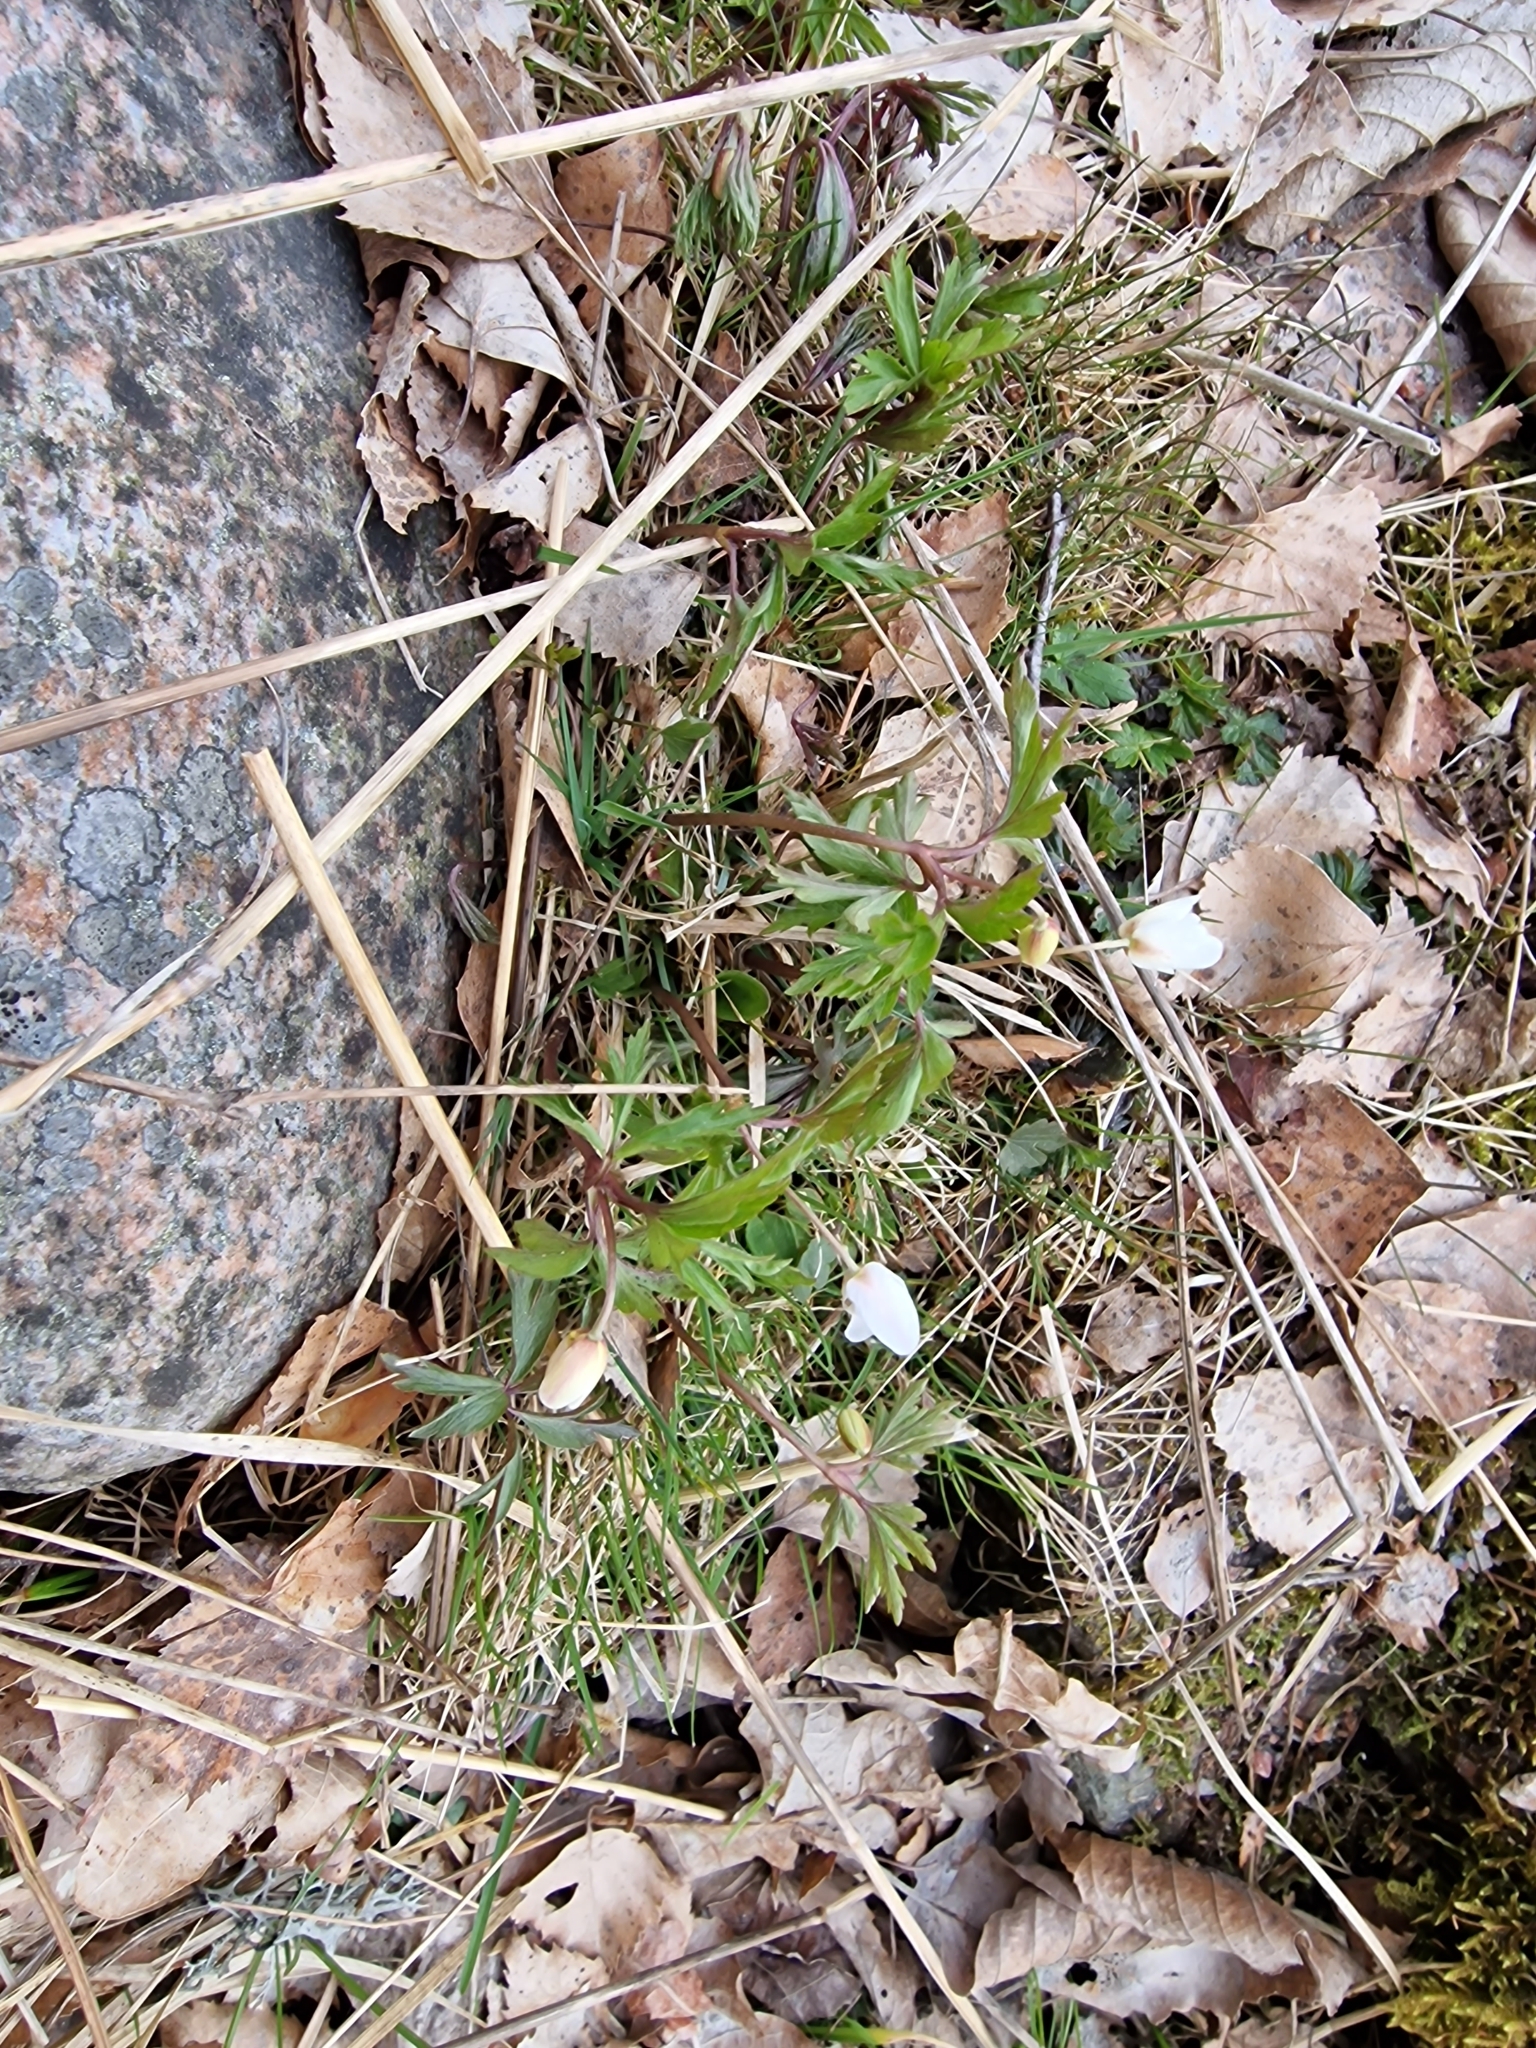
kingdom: Plantae
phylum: Tracheophyta
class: Magnoliopsida
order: Ranunculales
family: Ranunculaceae
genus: Anemone
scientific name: Anemone nemorosa
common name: Wood anemone
